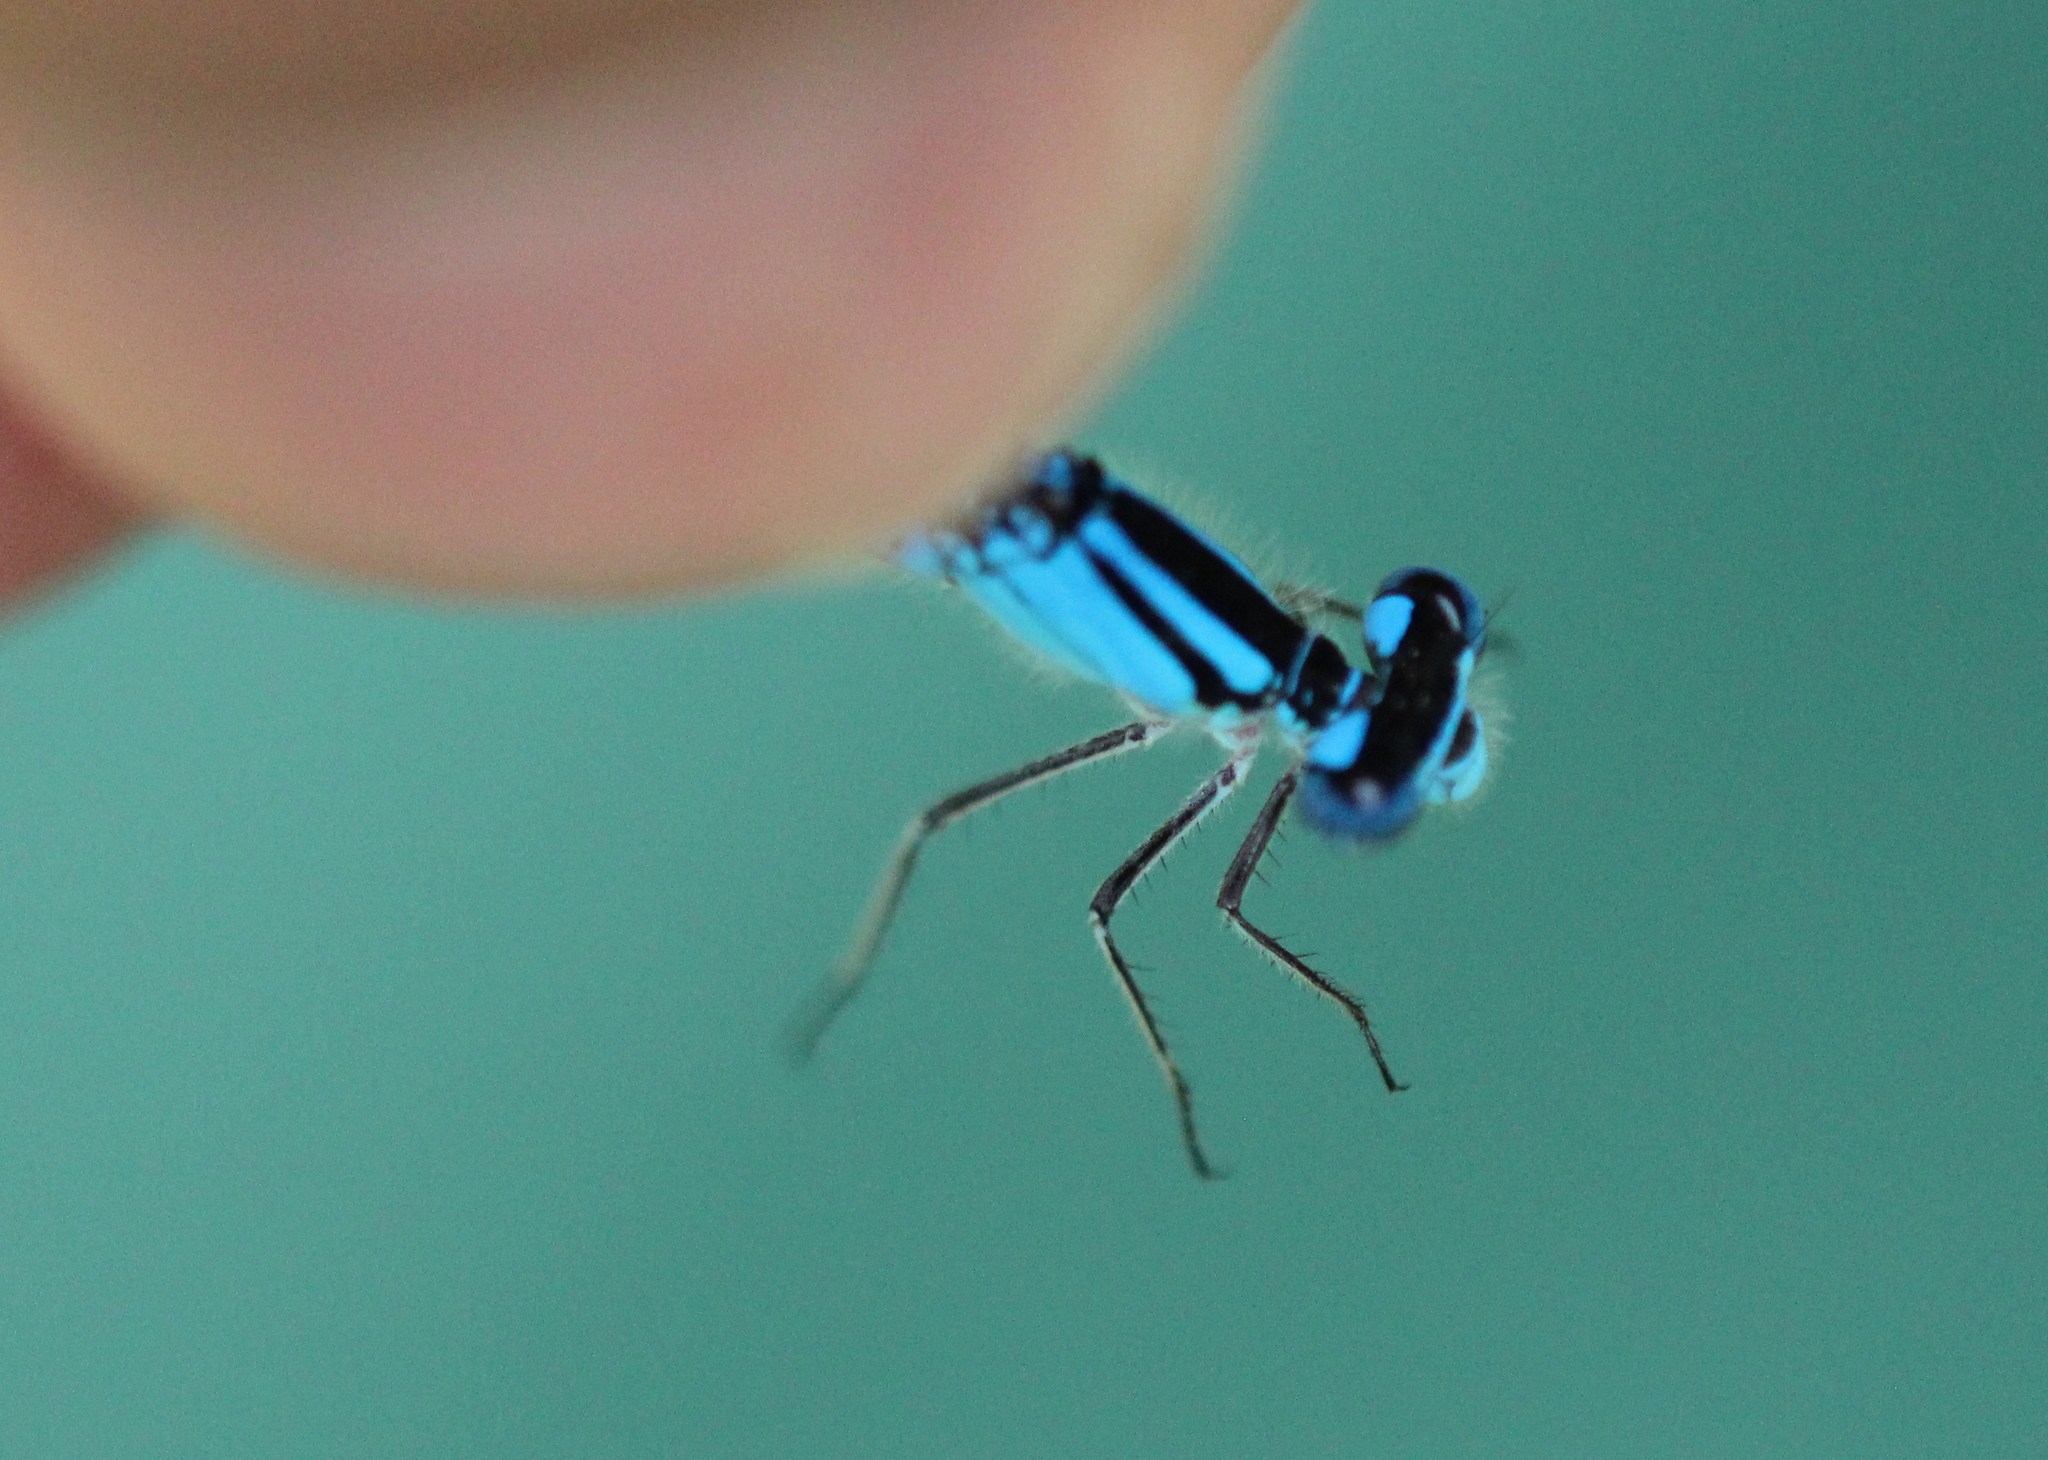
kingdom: Animalia
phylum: Arthropoda
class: Insecta
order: Odonata
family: Coenagrionidae
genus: Enallagma
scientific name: Enallagma aspersum
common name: Azure bluet
